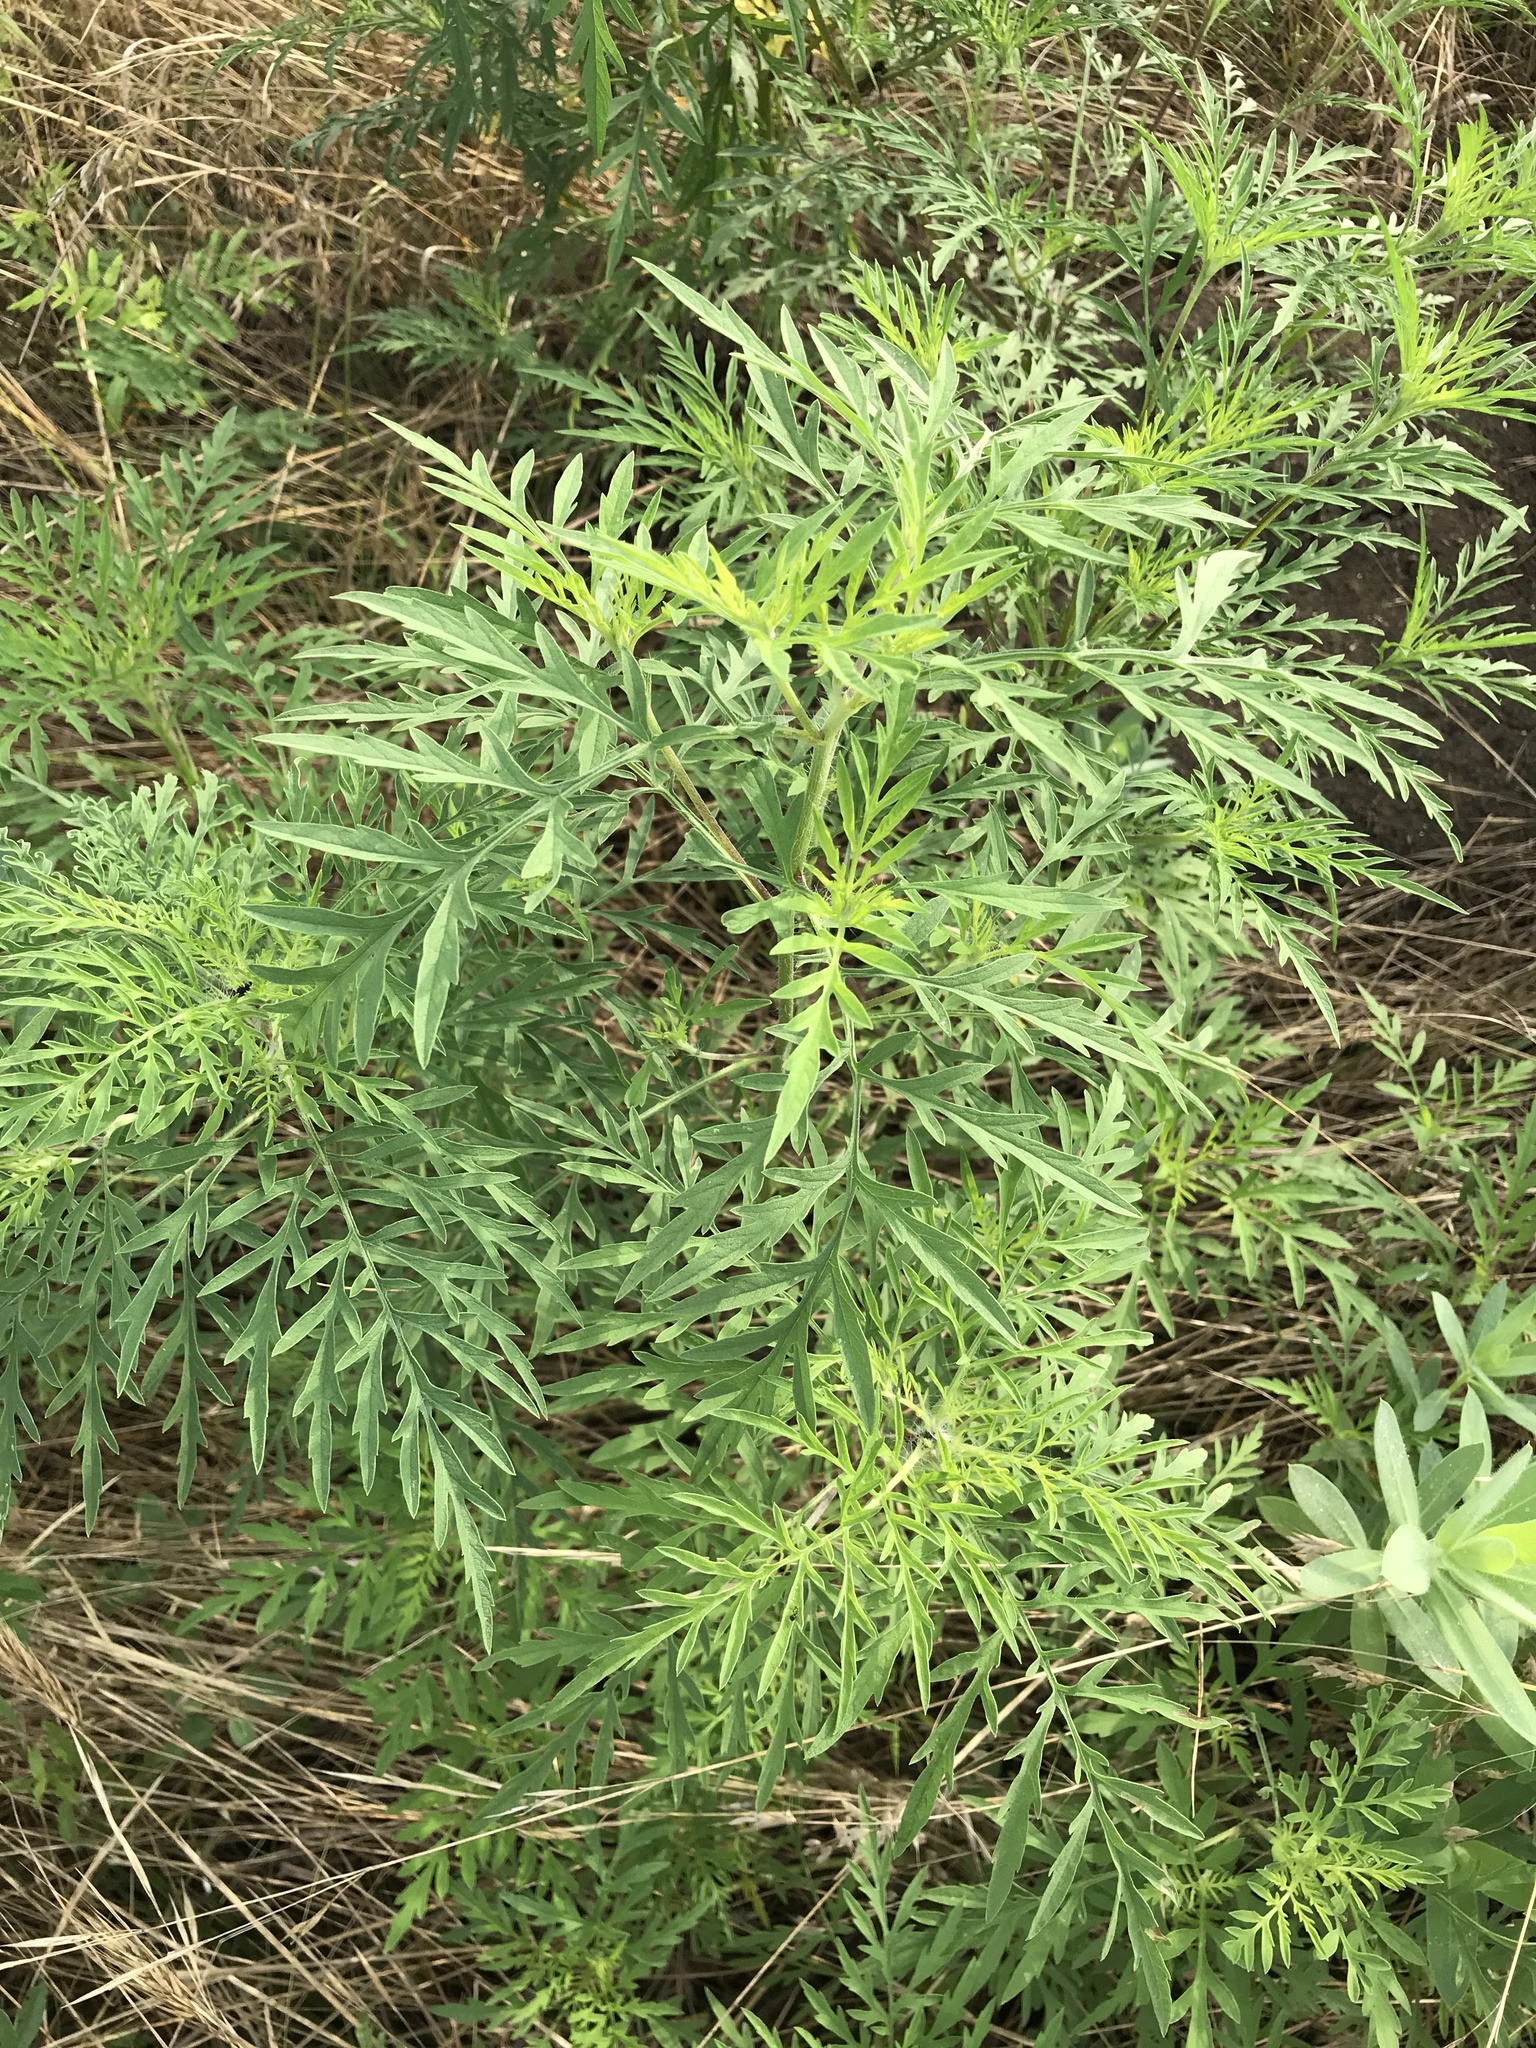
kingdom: Plantae
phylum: Tracheophyta
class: Magnoliopsida
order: Asterales
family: Asteraceae
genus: Ambrosia
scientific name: Ambrosia artemisiifolia
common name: Annual ragweed
